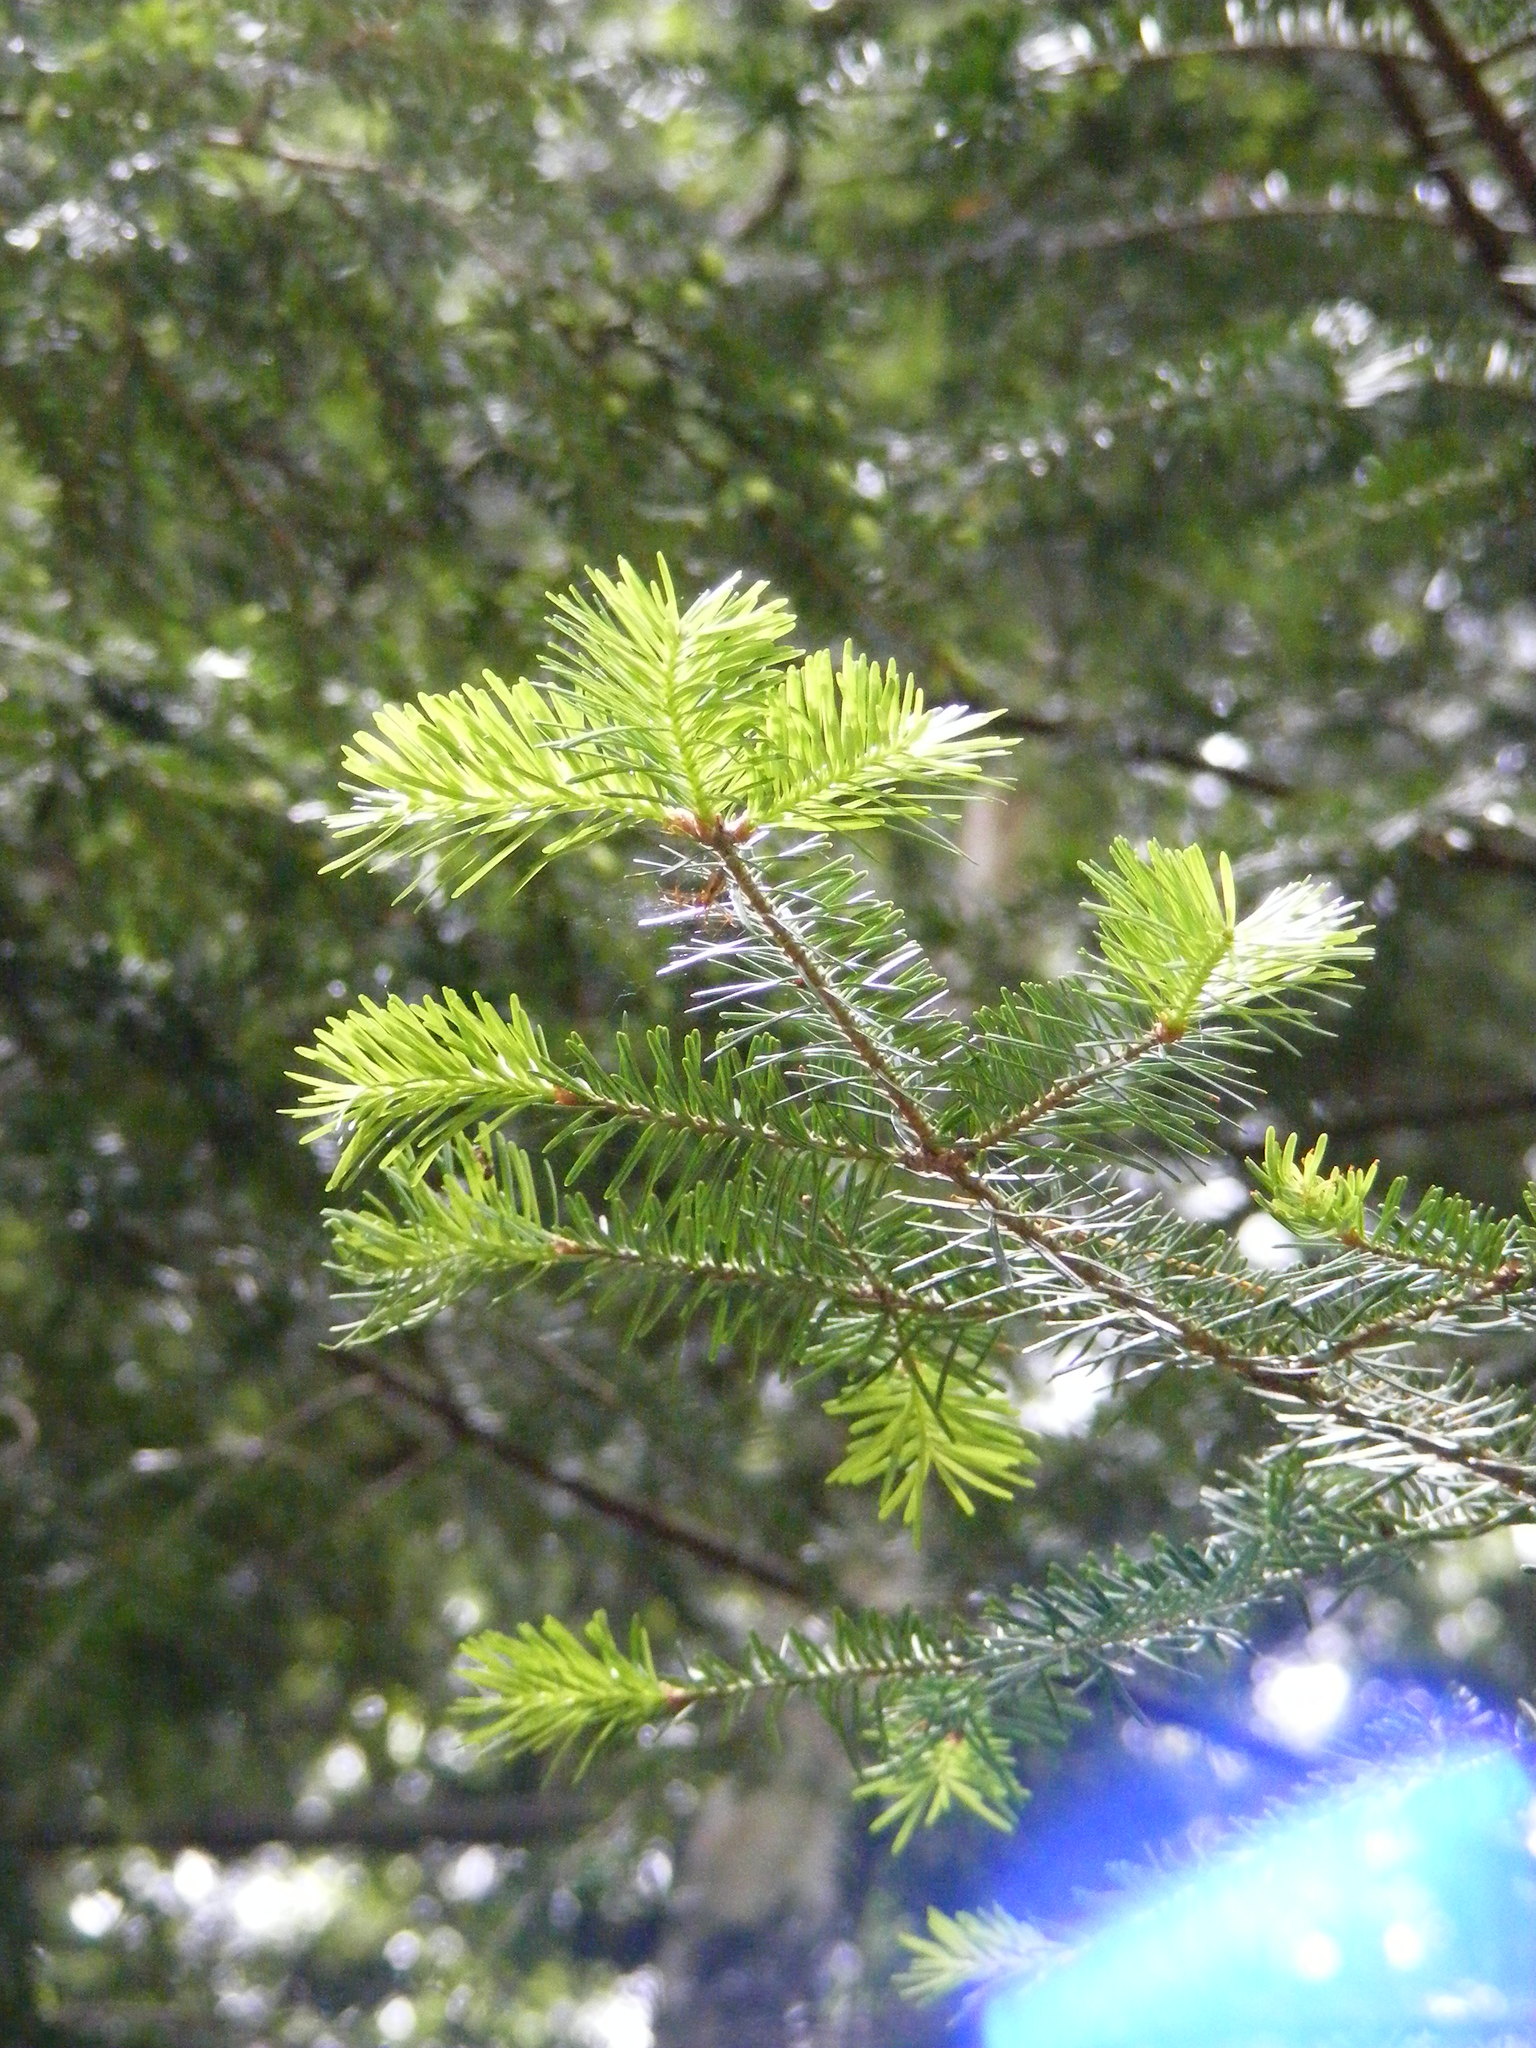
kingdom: Plantae
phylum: Tracheophyta
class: Pinopsida
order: Pinales
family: Pinaceae
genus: Abies
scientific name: Abies balsamea
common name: Balsam fir
